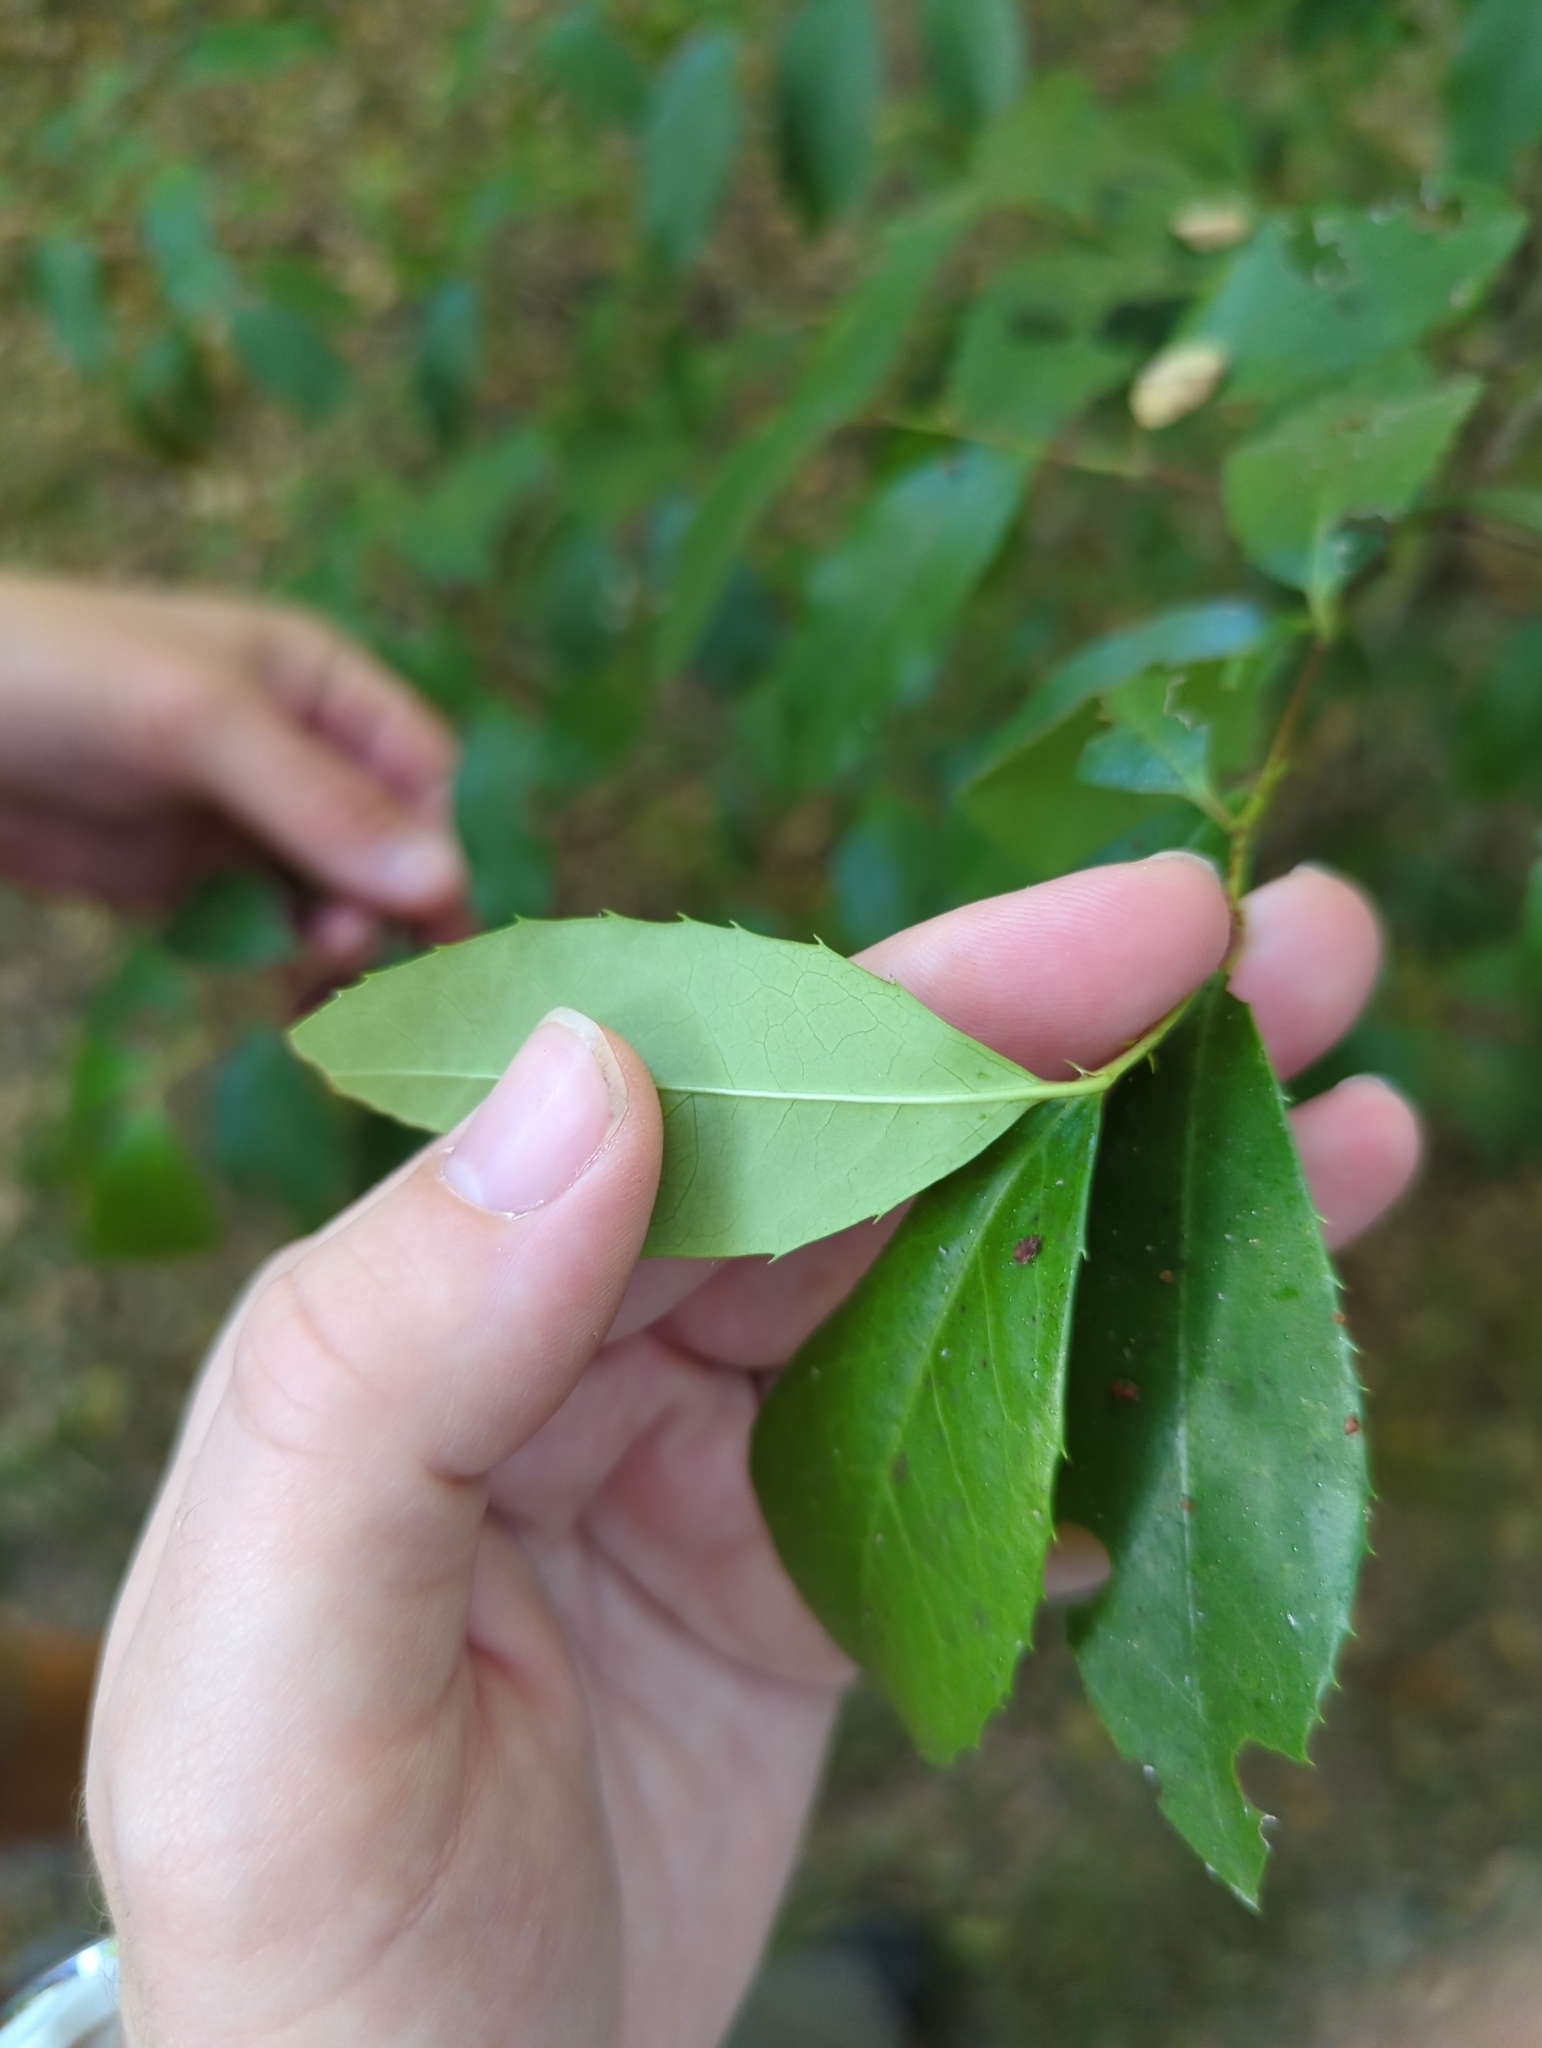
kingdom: Plantae
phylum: Tracheophyta
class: Magnoliopsida
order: Rosales
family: Rosaceae
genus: Prunus
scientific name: Prunus caroliniana
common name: Carolina laurel cherry
